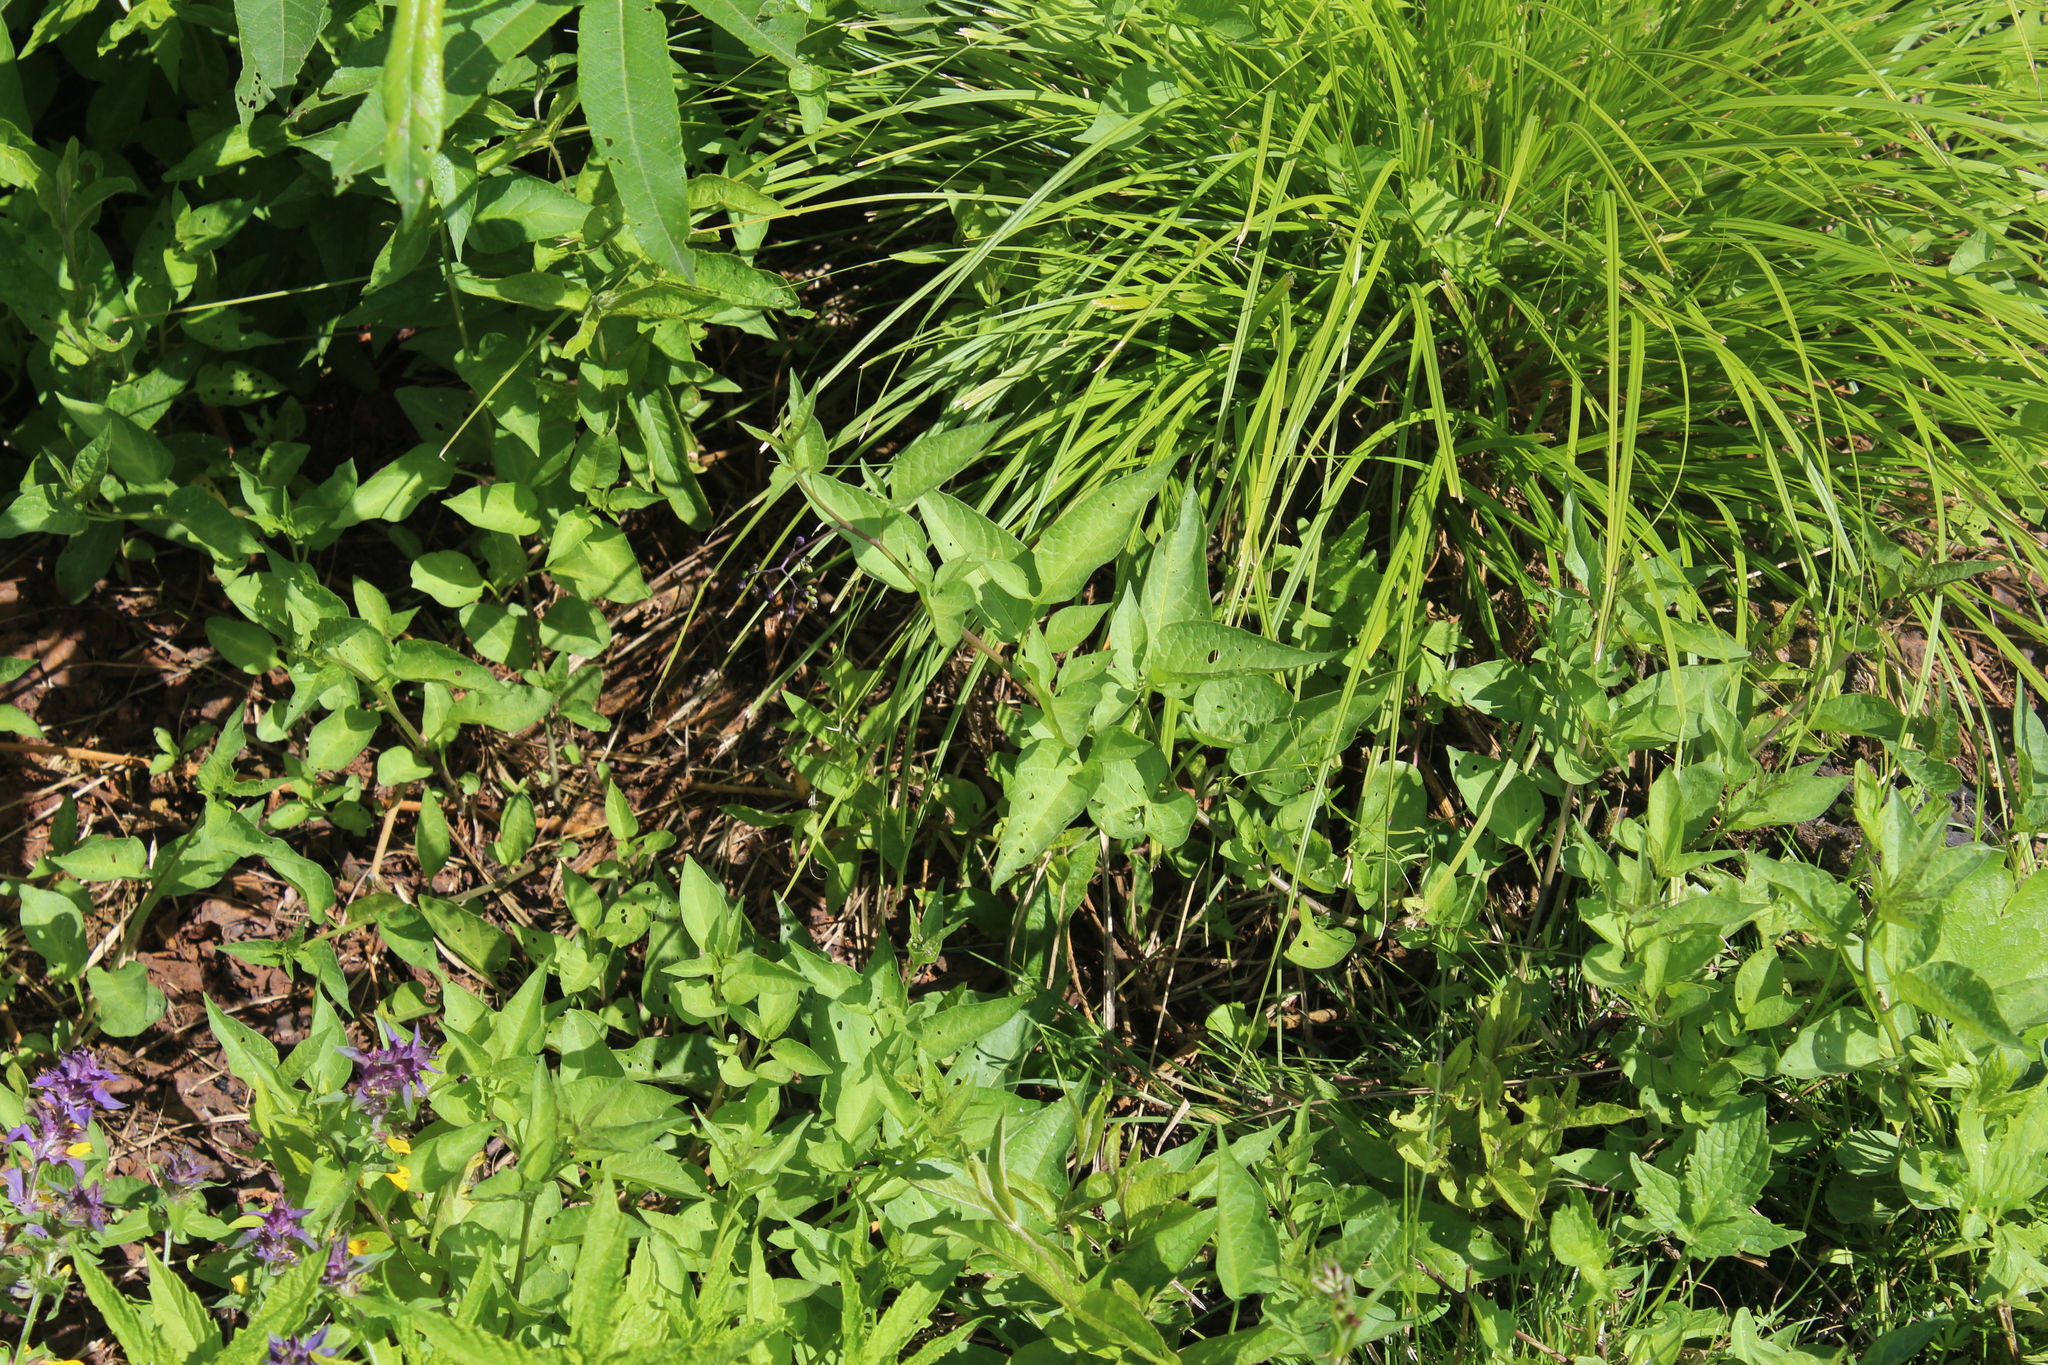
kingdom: Plantae
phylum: Tracheophyta
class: Magnoliopsida
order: Solanales
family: Solanaceae
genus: Solanum
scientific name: Solanum dulcamara
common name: Climbing nightshade
